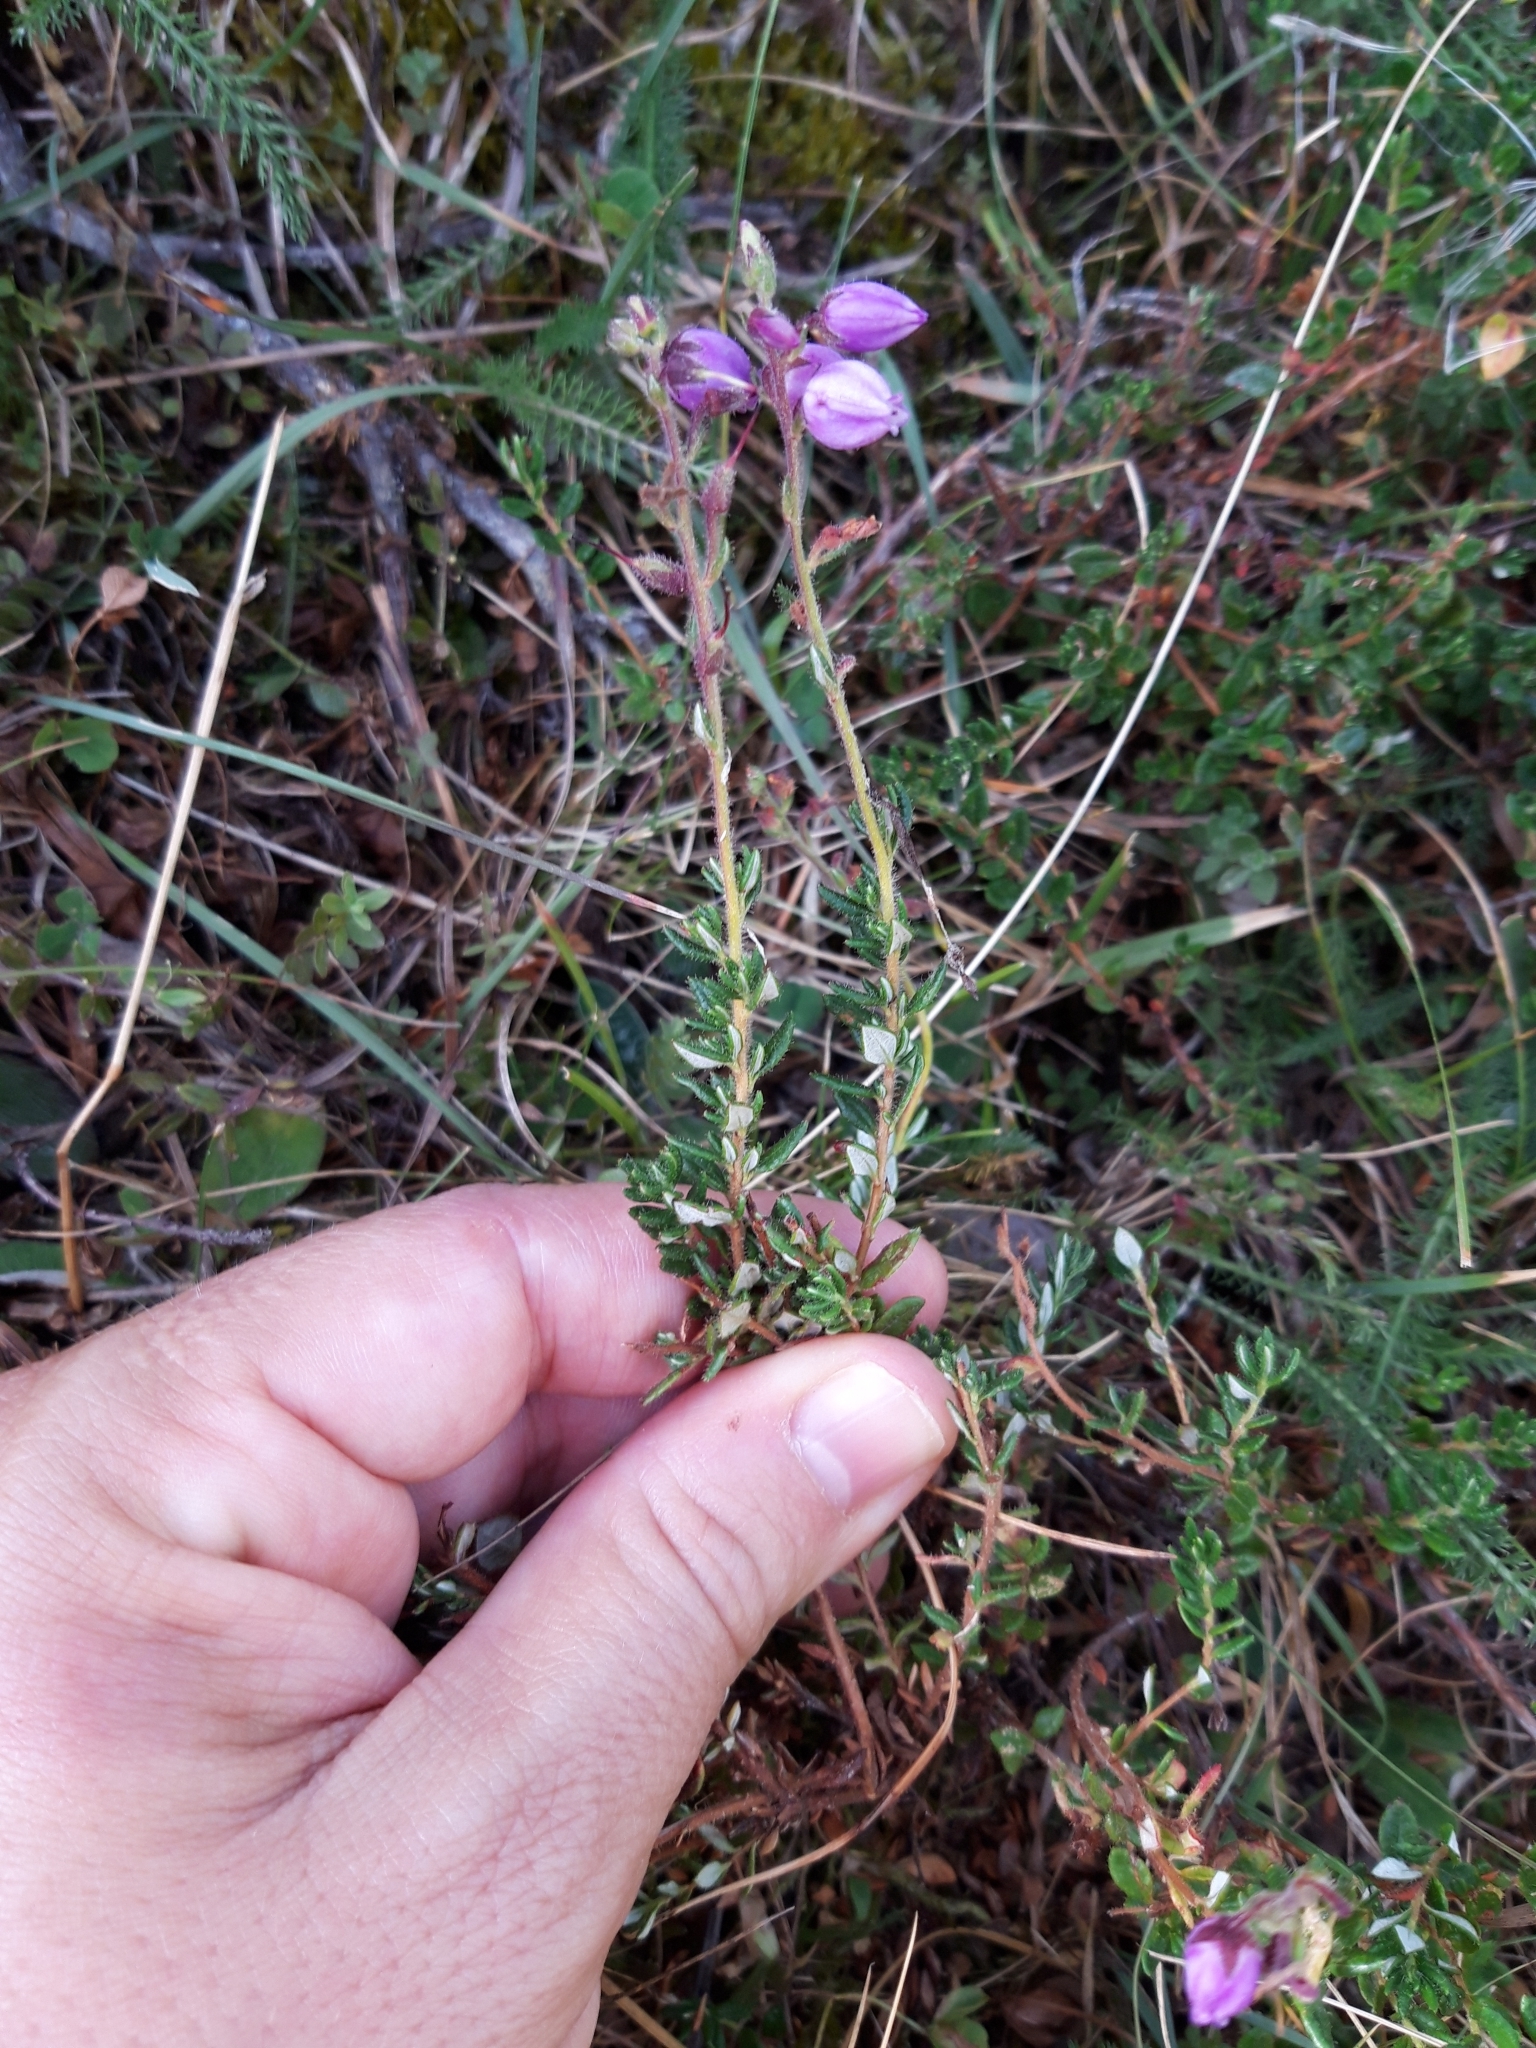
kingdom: Plantae
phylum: Tracheophyta
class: Magnoliopsida
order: Ericales
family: Ericaceae
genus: Daboecia
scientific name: Daboecia cantabrica
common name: St. dabeoc's-heath
